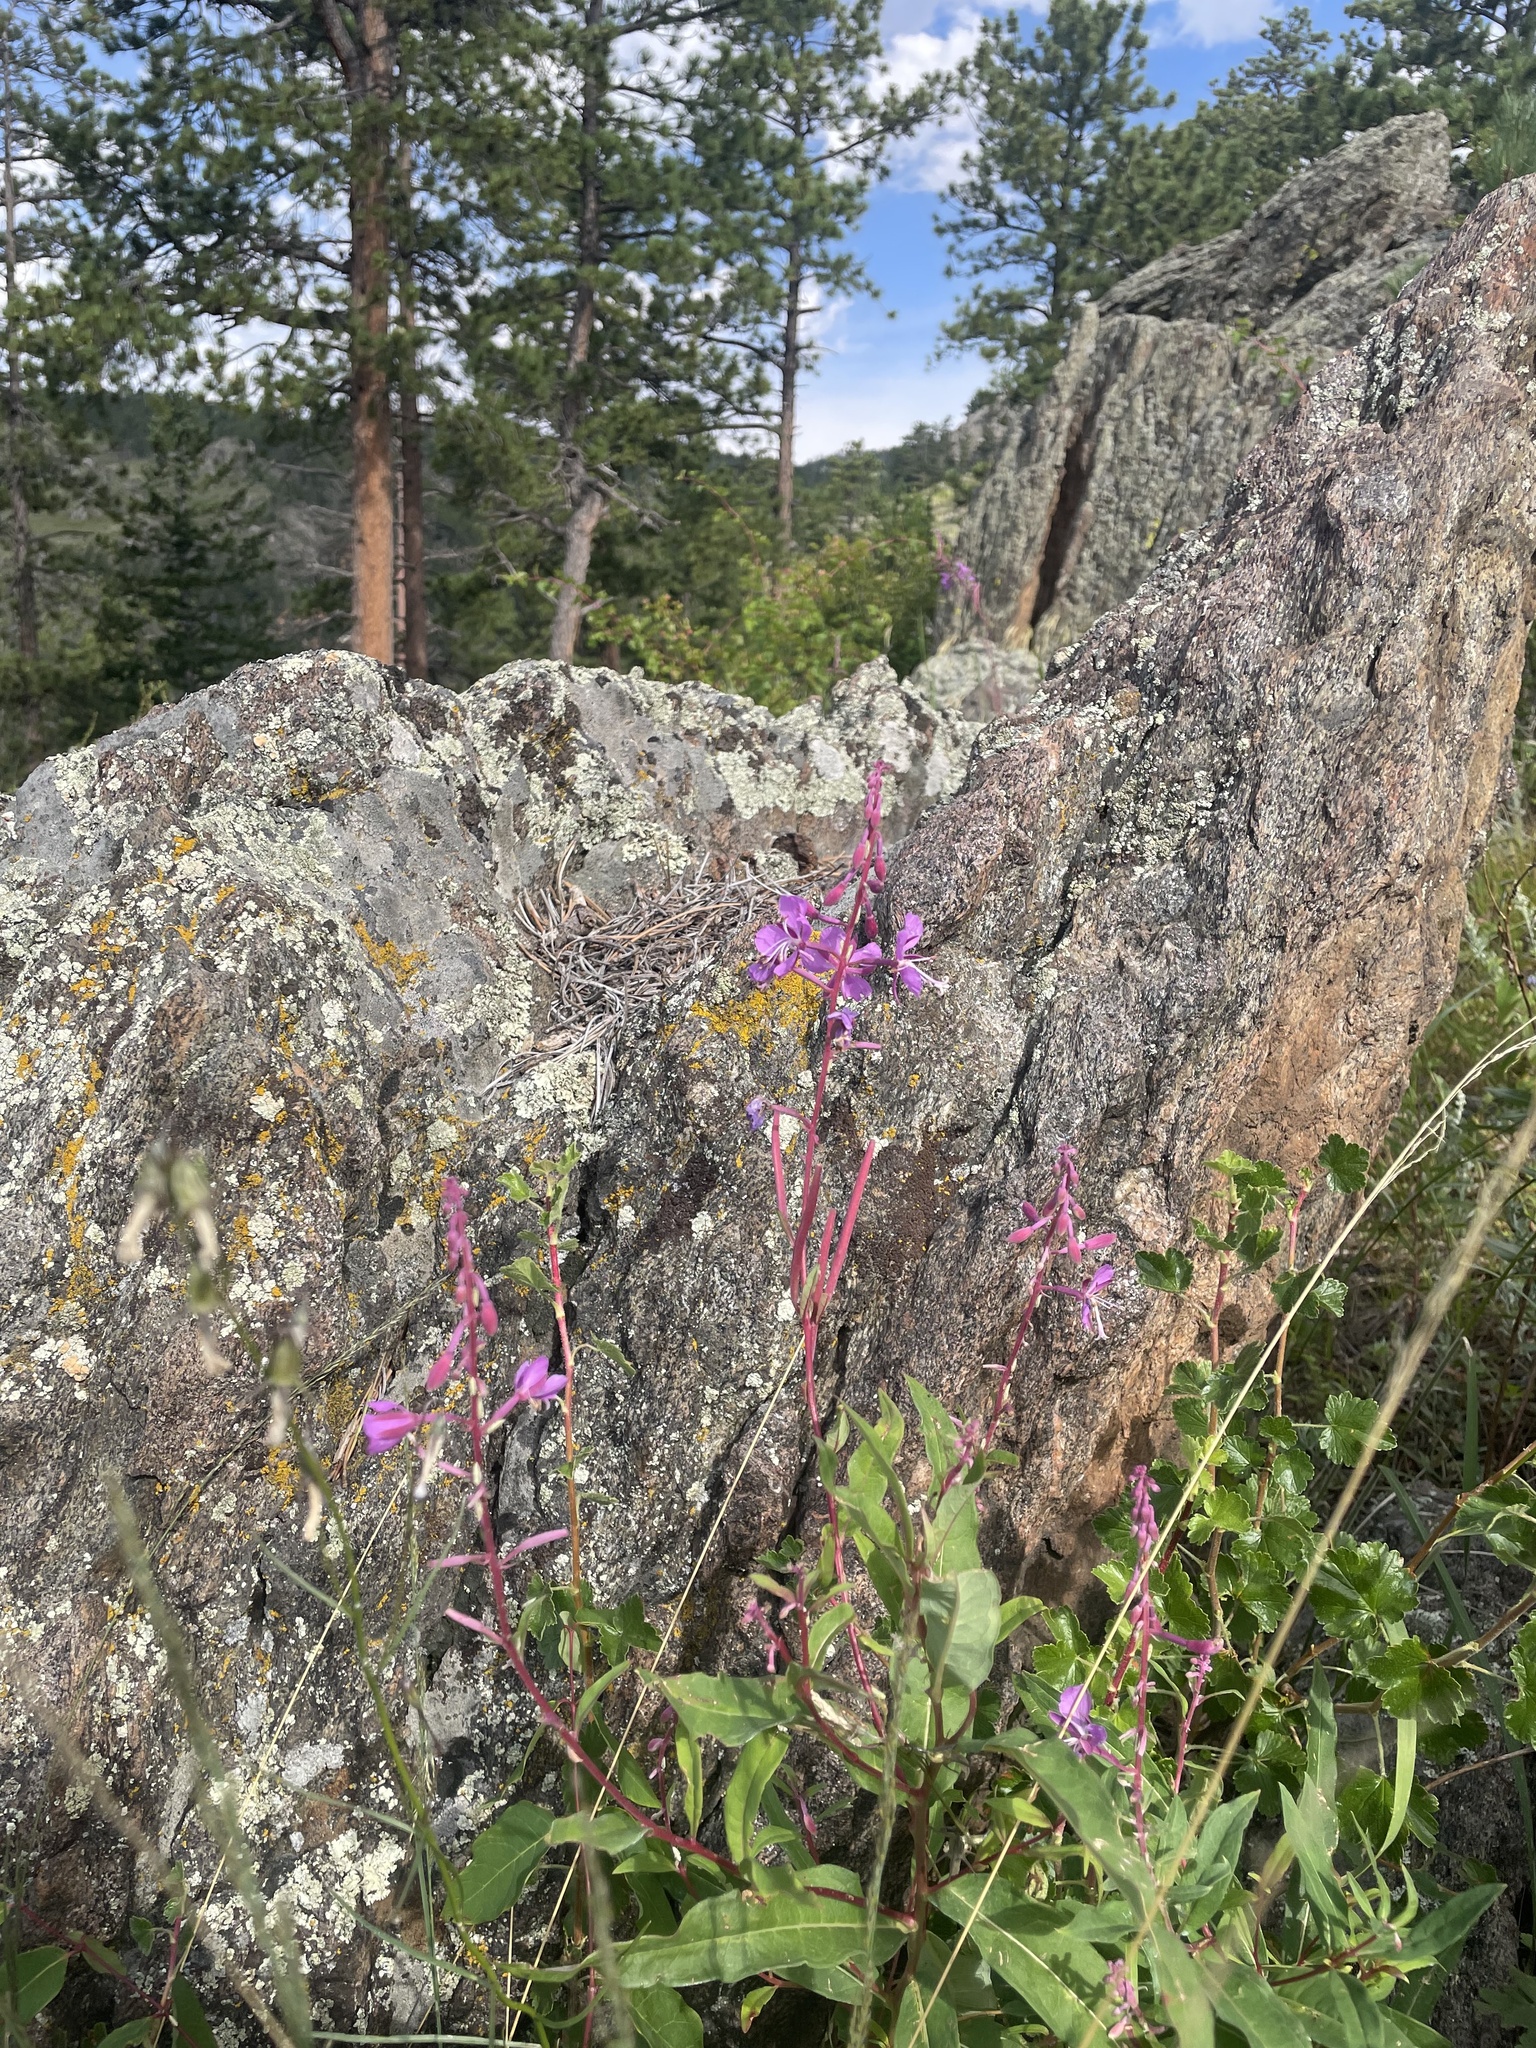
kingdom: Plantae
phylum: Tracheophyta
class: Magnoliopsida
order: Myrtales
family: Onagraceae
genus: Chamaenerion
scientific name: Chamaenerion angustifolium
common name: Fireweed
